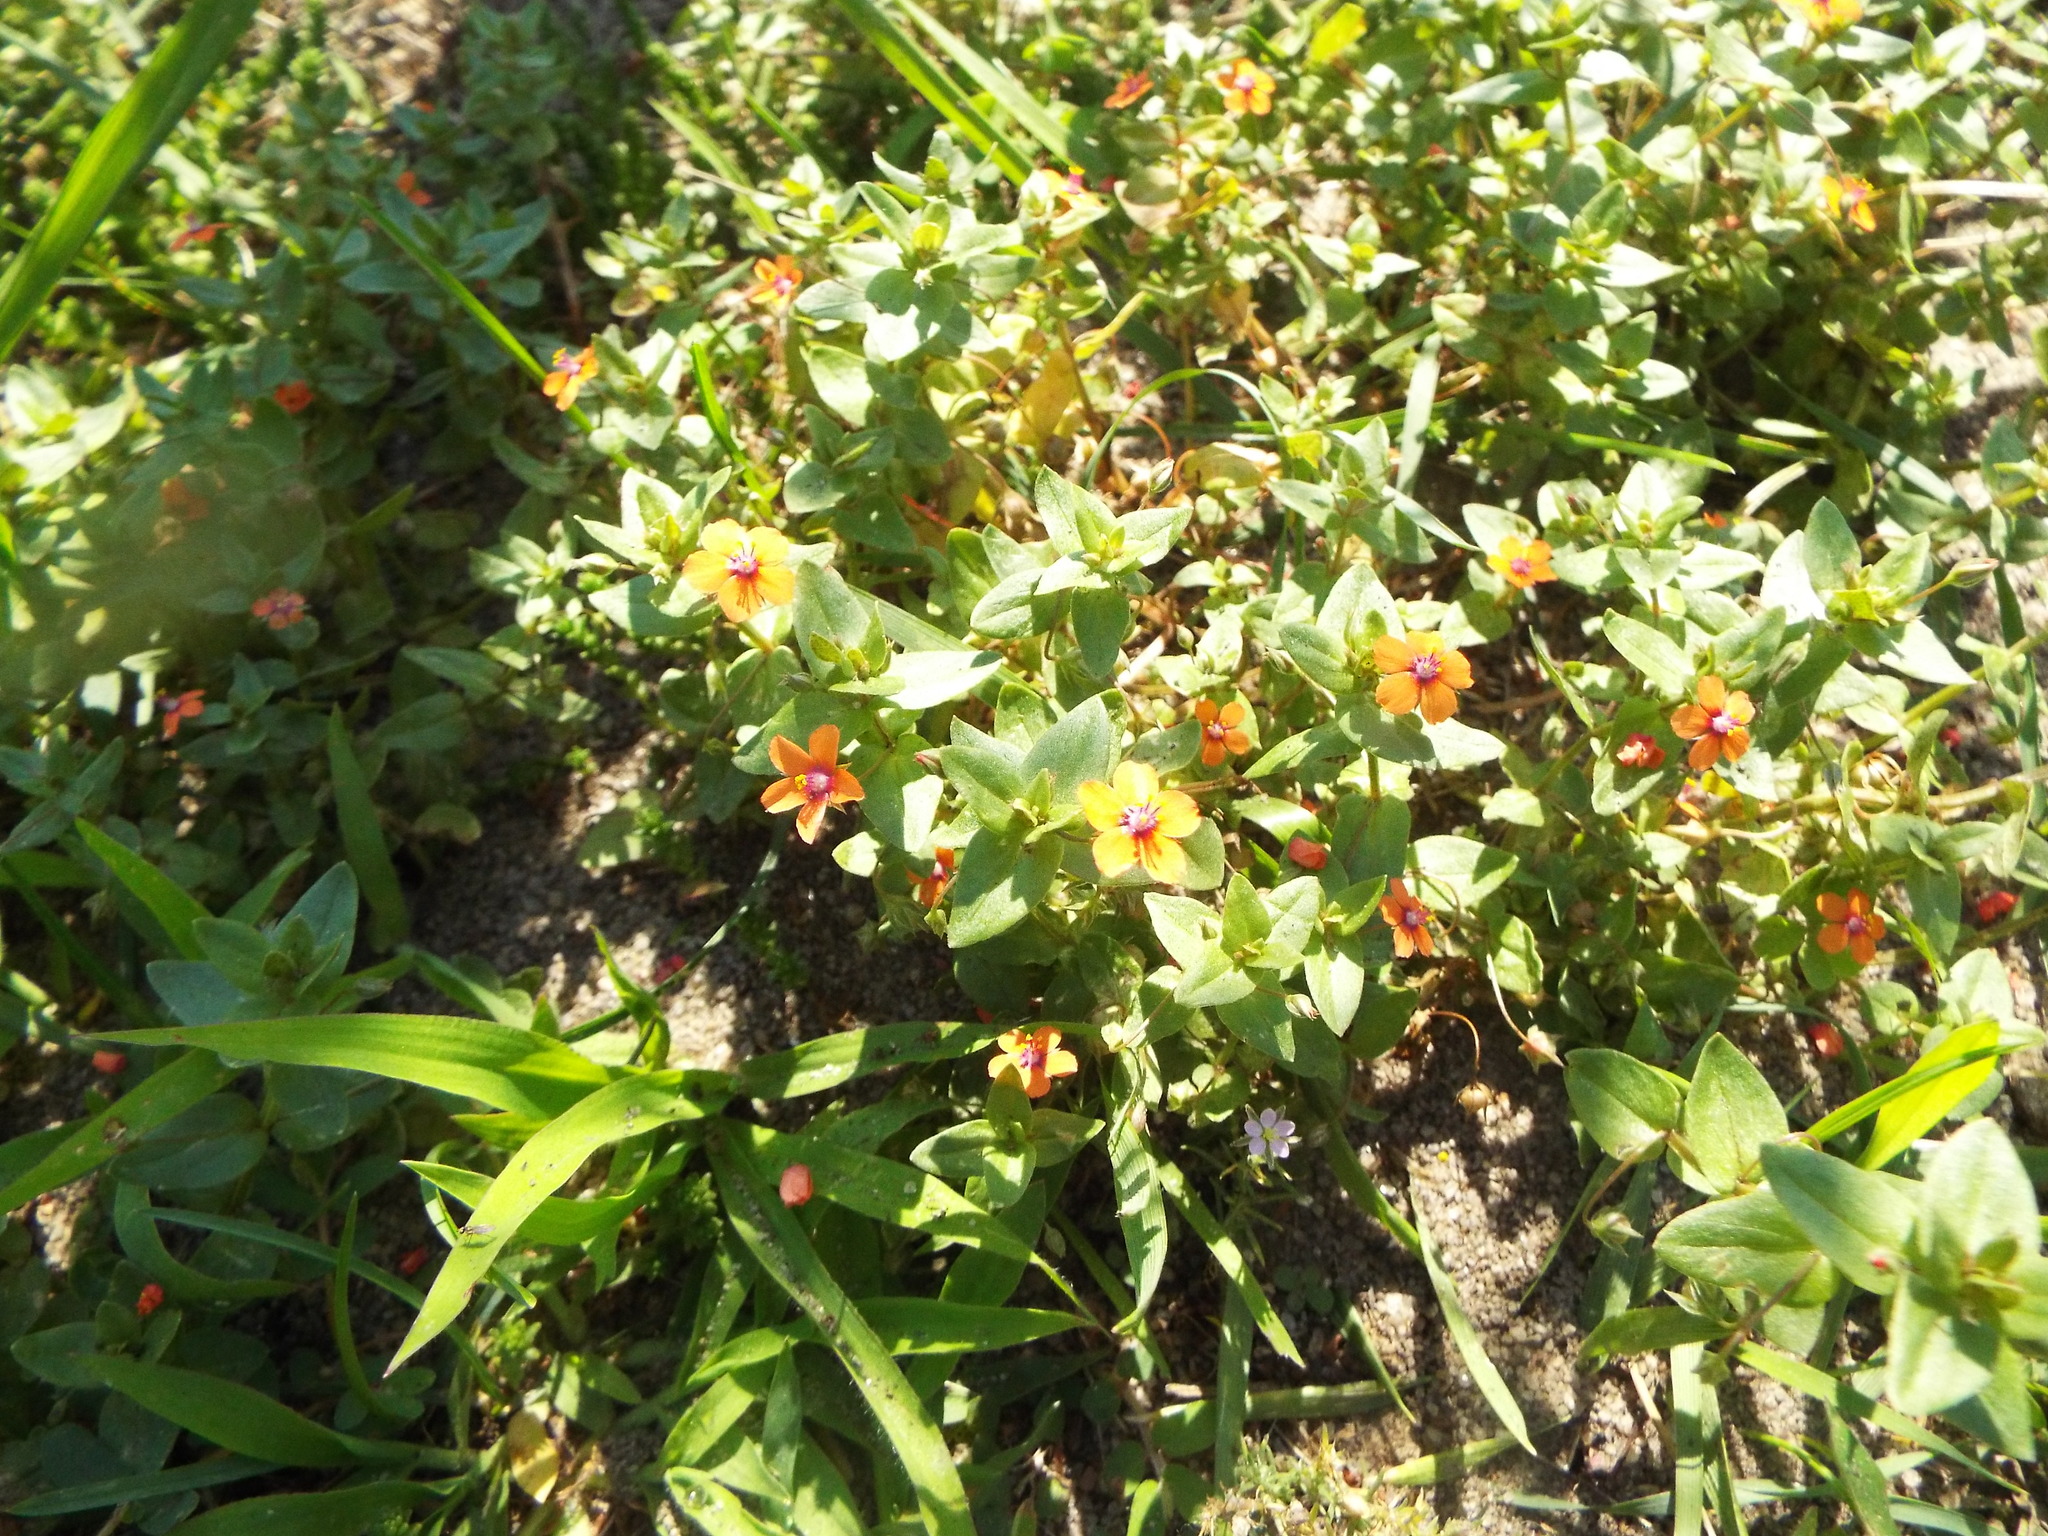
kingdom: Plantae
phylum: Tracheophyta
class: Magnoliopsida
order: Ericales
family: Primulaceae
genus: Lysimachia
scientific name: Lysimachia arvensis
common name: Scarlet pimpernel
